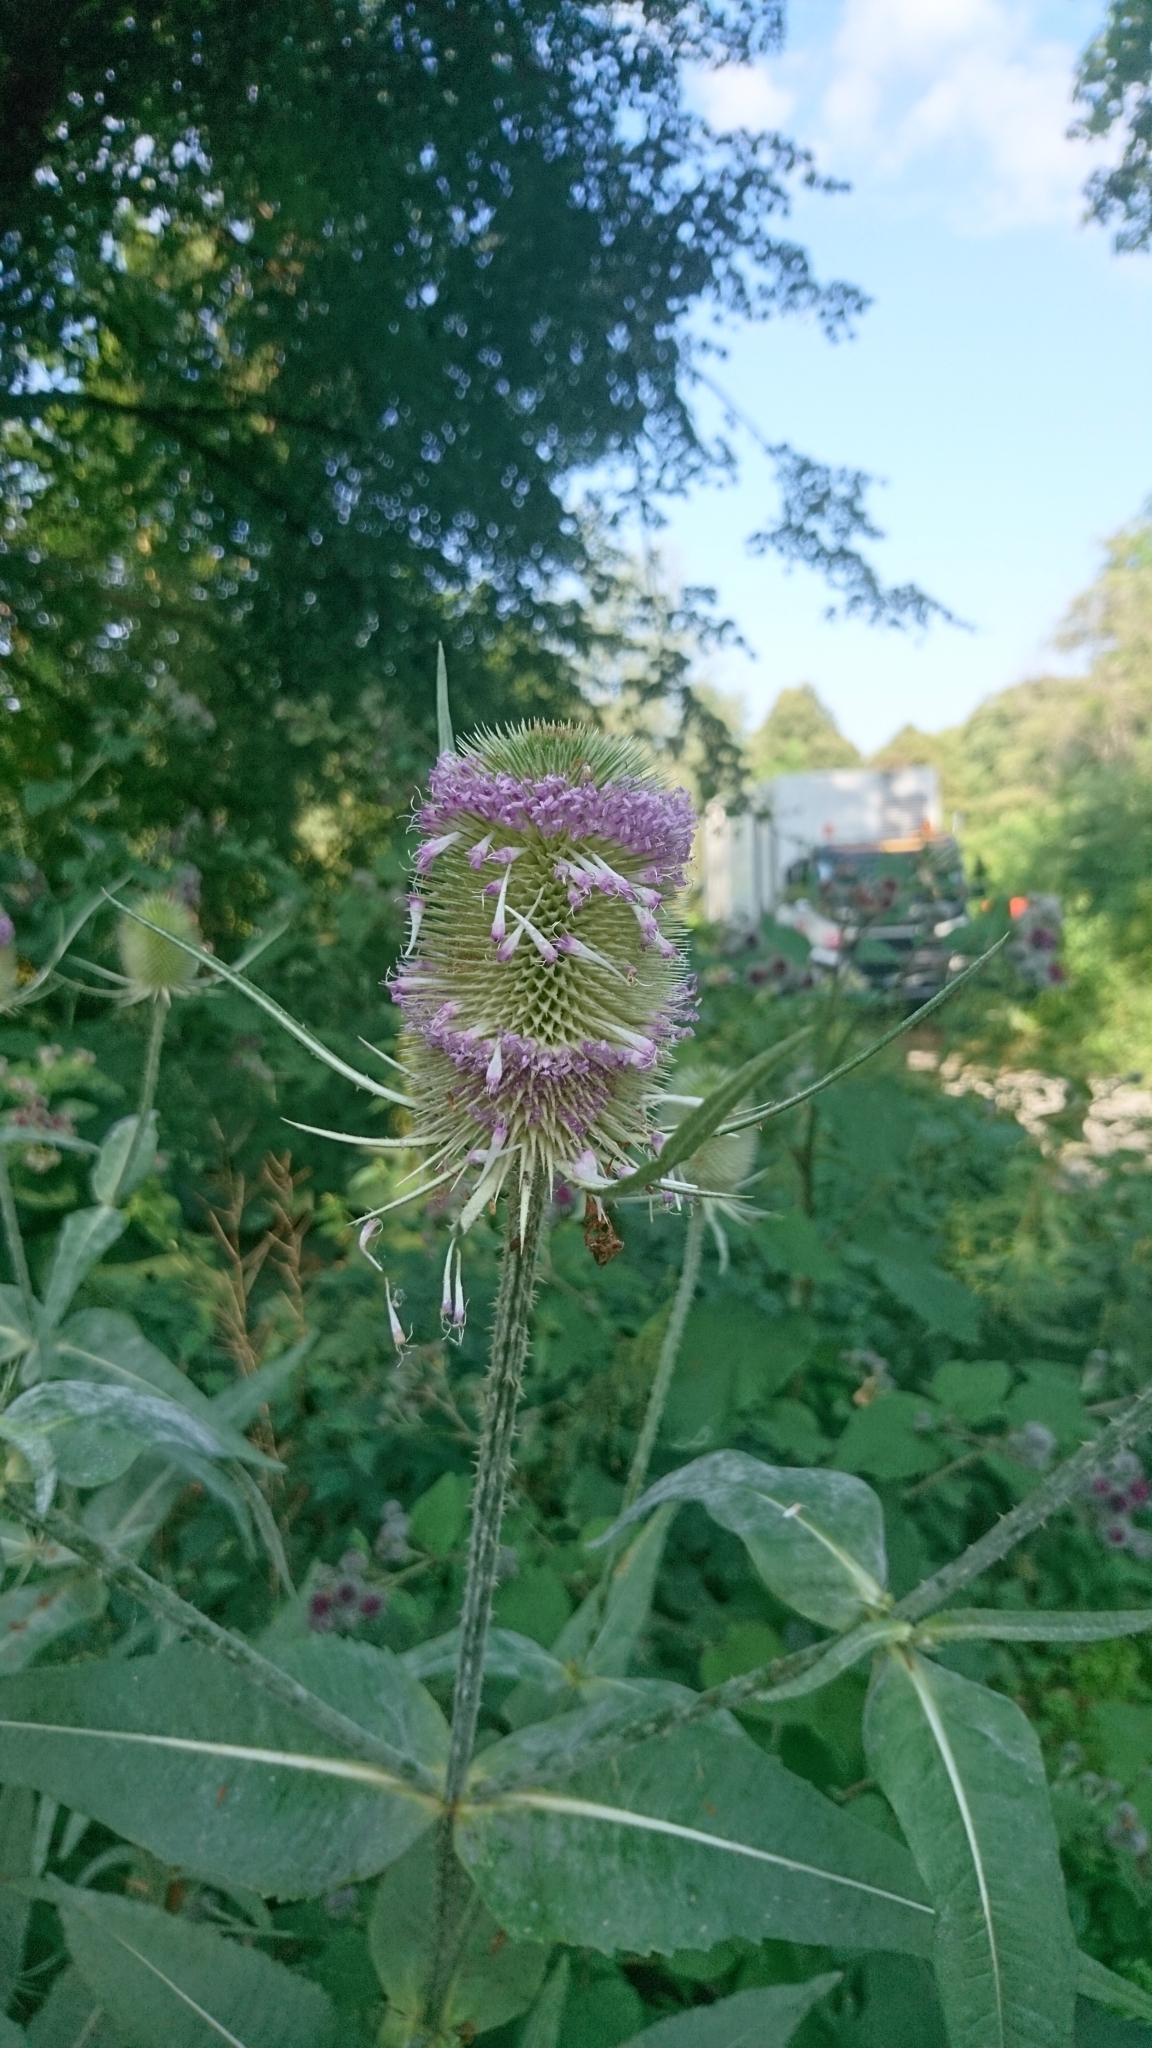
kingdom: Plantae
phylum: Tracheophyta
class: Magnoliopsida
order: Dipsacales
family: Caprifoliaceae
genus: Dipsacus
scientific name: Dipsacus fullonum
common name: Teasel
